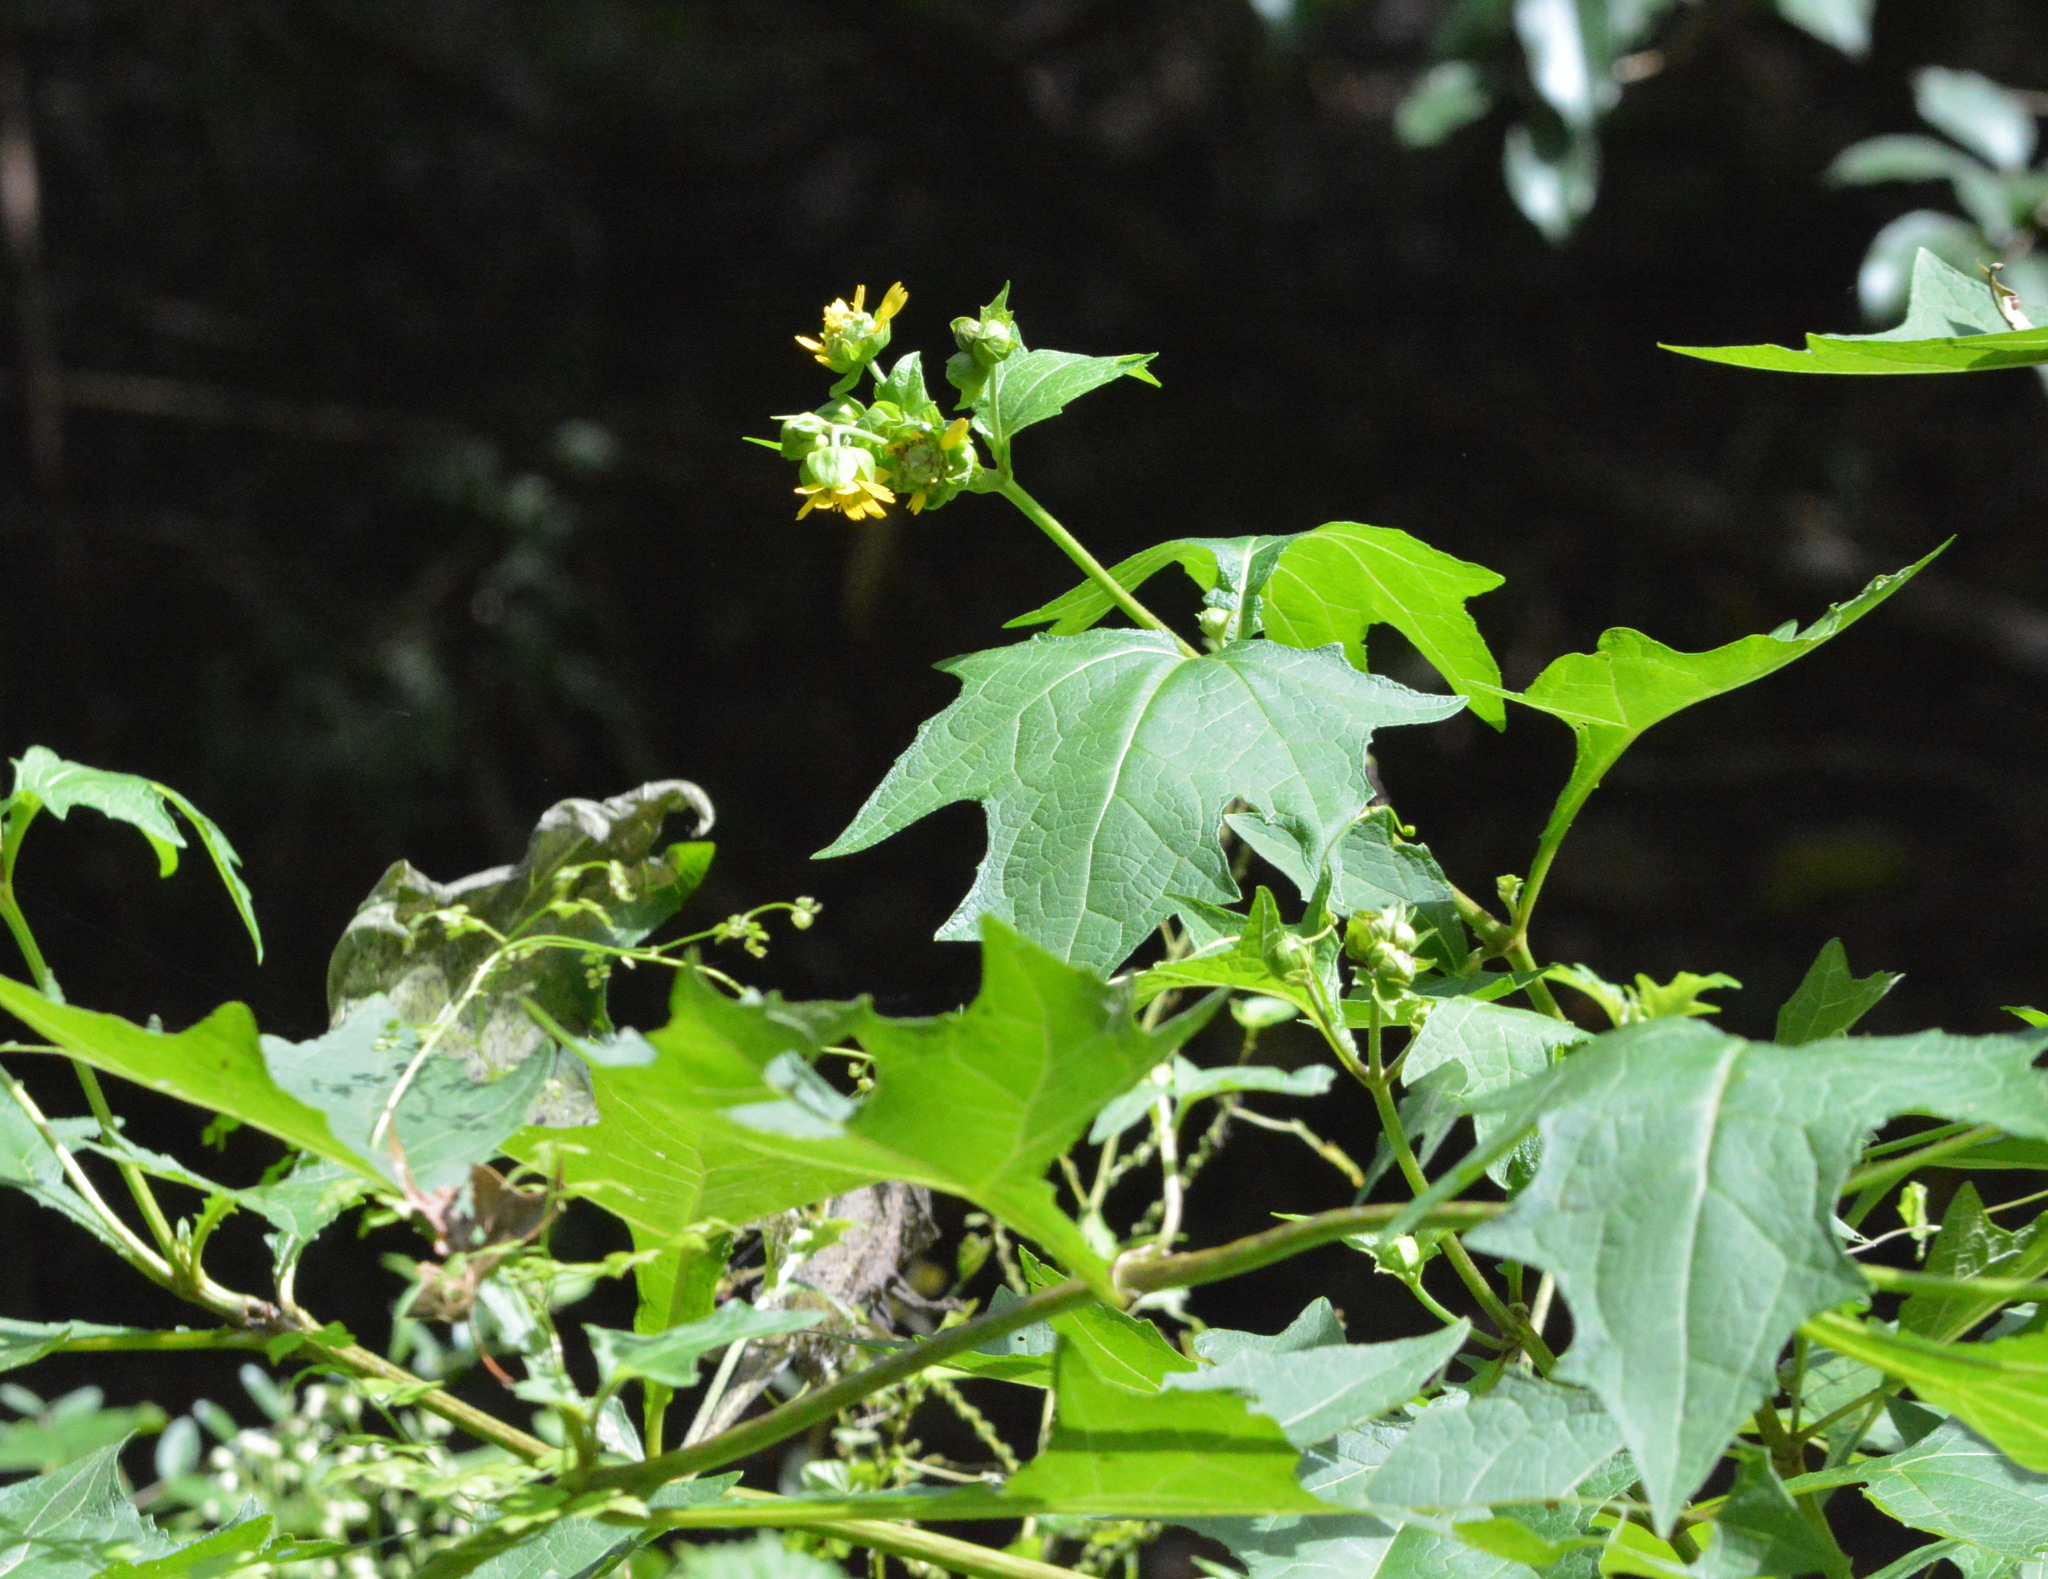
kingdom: Plantae
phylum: Tracheophyta
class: Magnoliopsida
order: Asterales
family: Asteraceae
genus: Smallanthus
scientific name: Smallanthus uvedalia
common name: Bear's-foot
